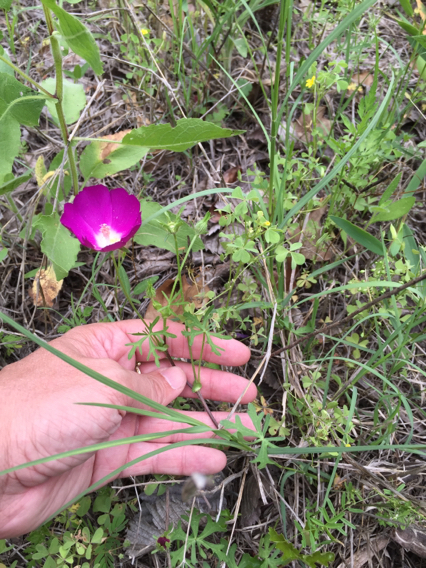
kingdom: Plantae
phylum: Tracheophyta
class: Magnoliopsida
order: Malvales
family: Malvaceae
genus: Callirhoe
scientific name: Callirhoe involucrata
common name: Purple poppy-mallow
